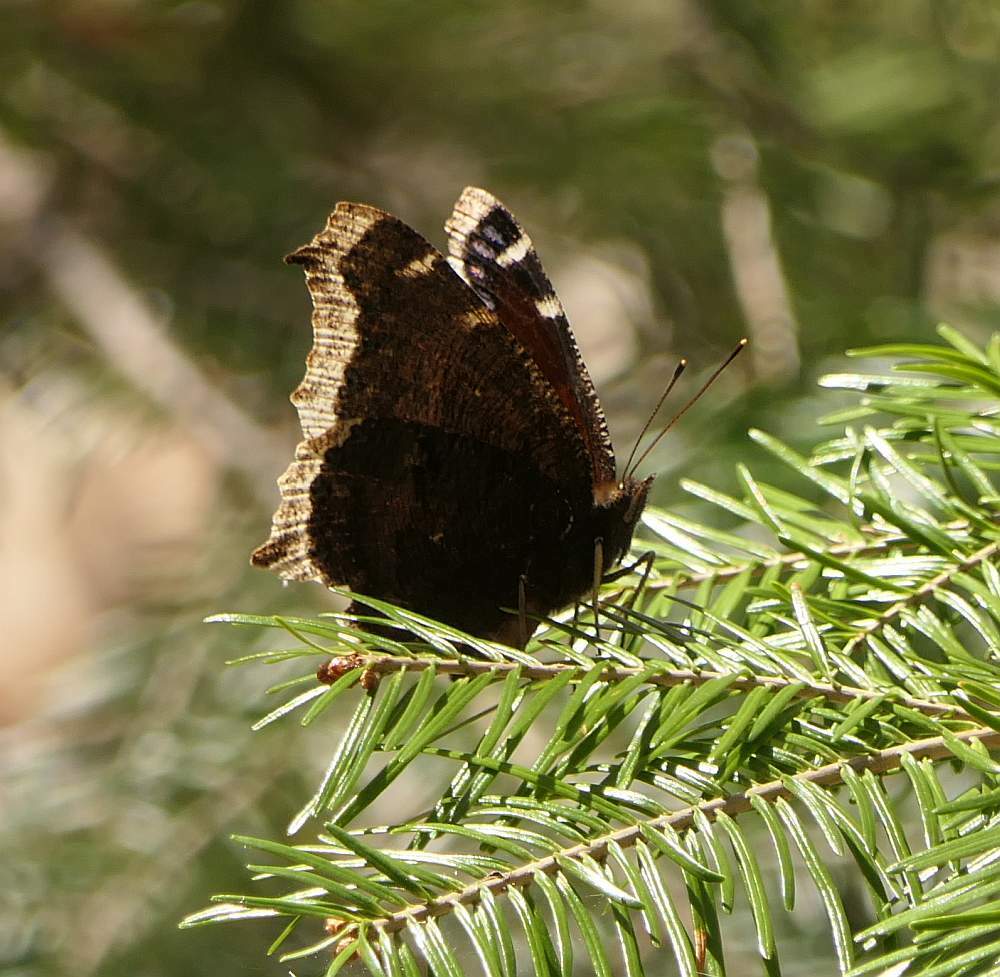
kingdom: Animalia
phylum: Arthropoda
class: Insecta
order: Lepidoptera
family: Nymphalidae
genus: Nymphalis
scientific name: Nymphalis antiopa
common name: Camberwell beauty
